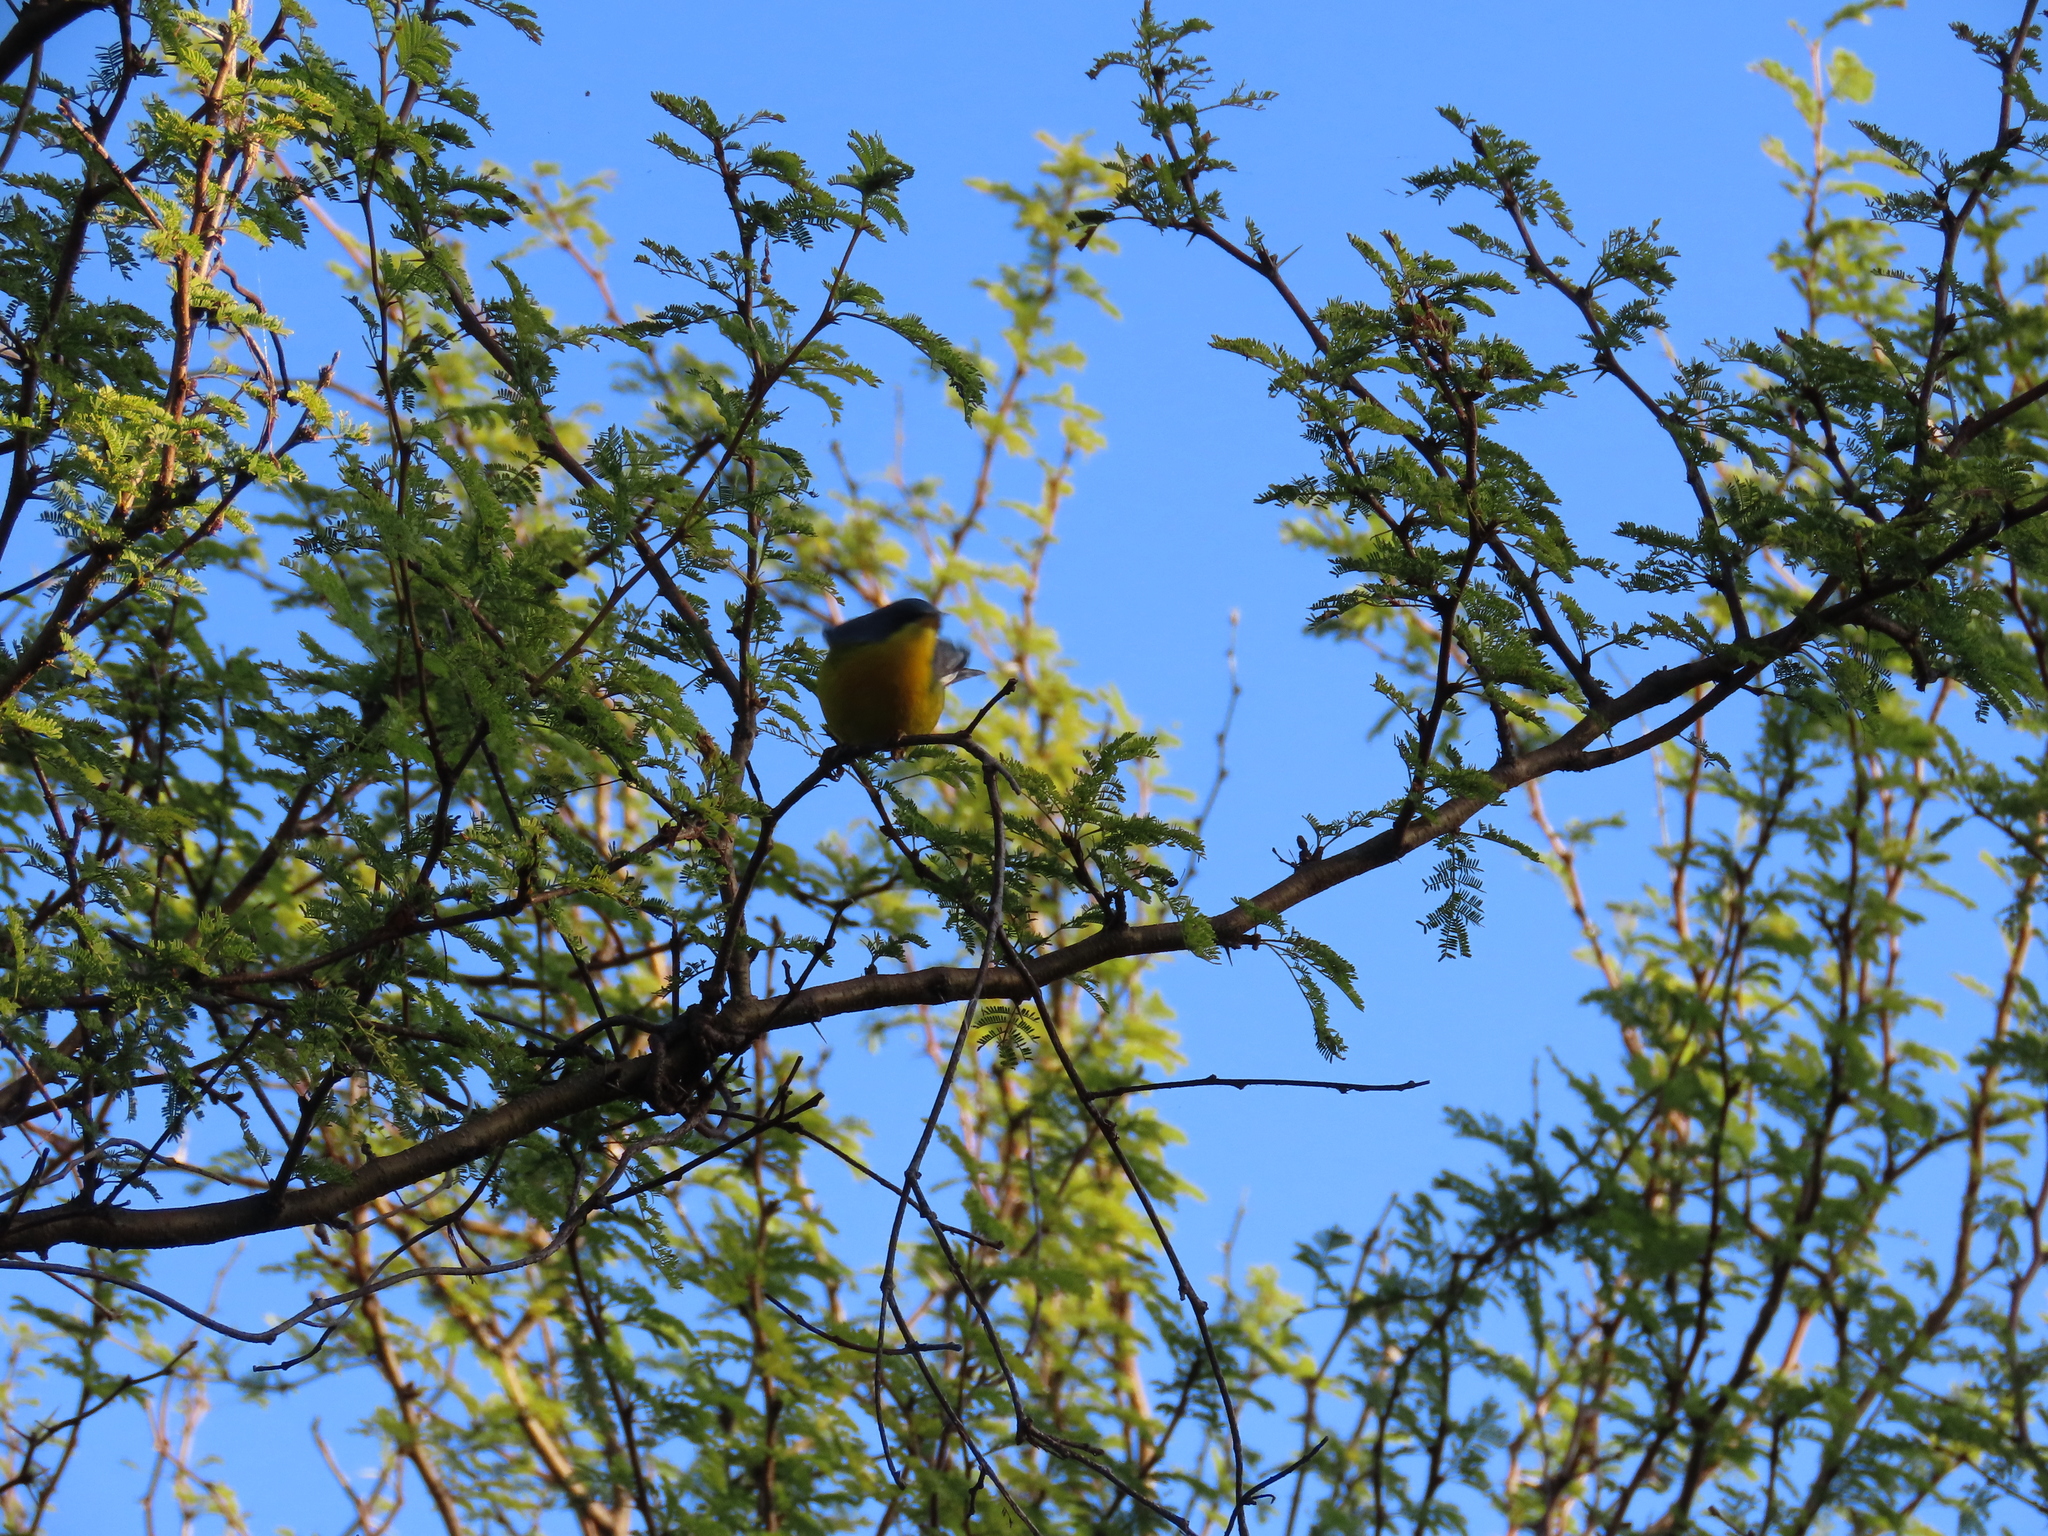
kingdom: Animalia
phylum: Chordata
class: Aves
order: Passeriformes
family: Parulidae
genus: Setophaga
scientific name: Setophaga pitiayumi
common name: Tropical parula
